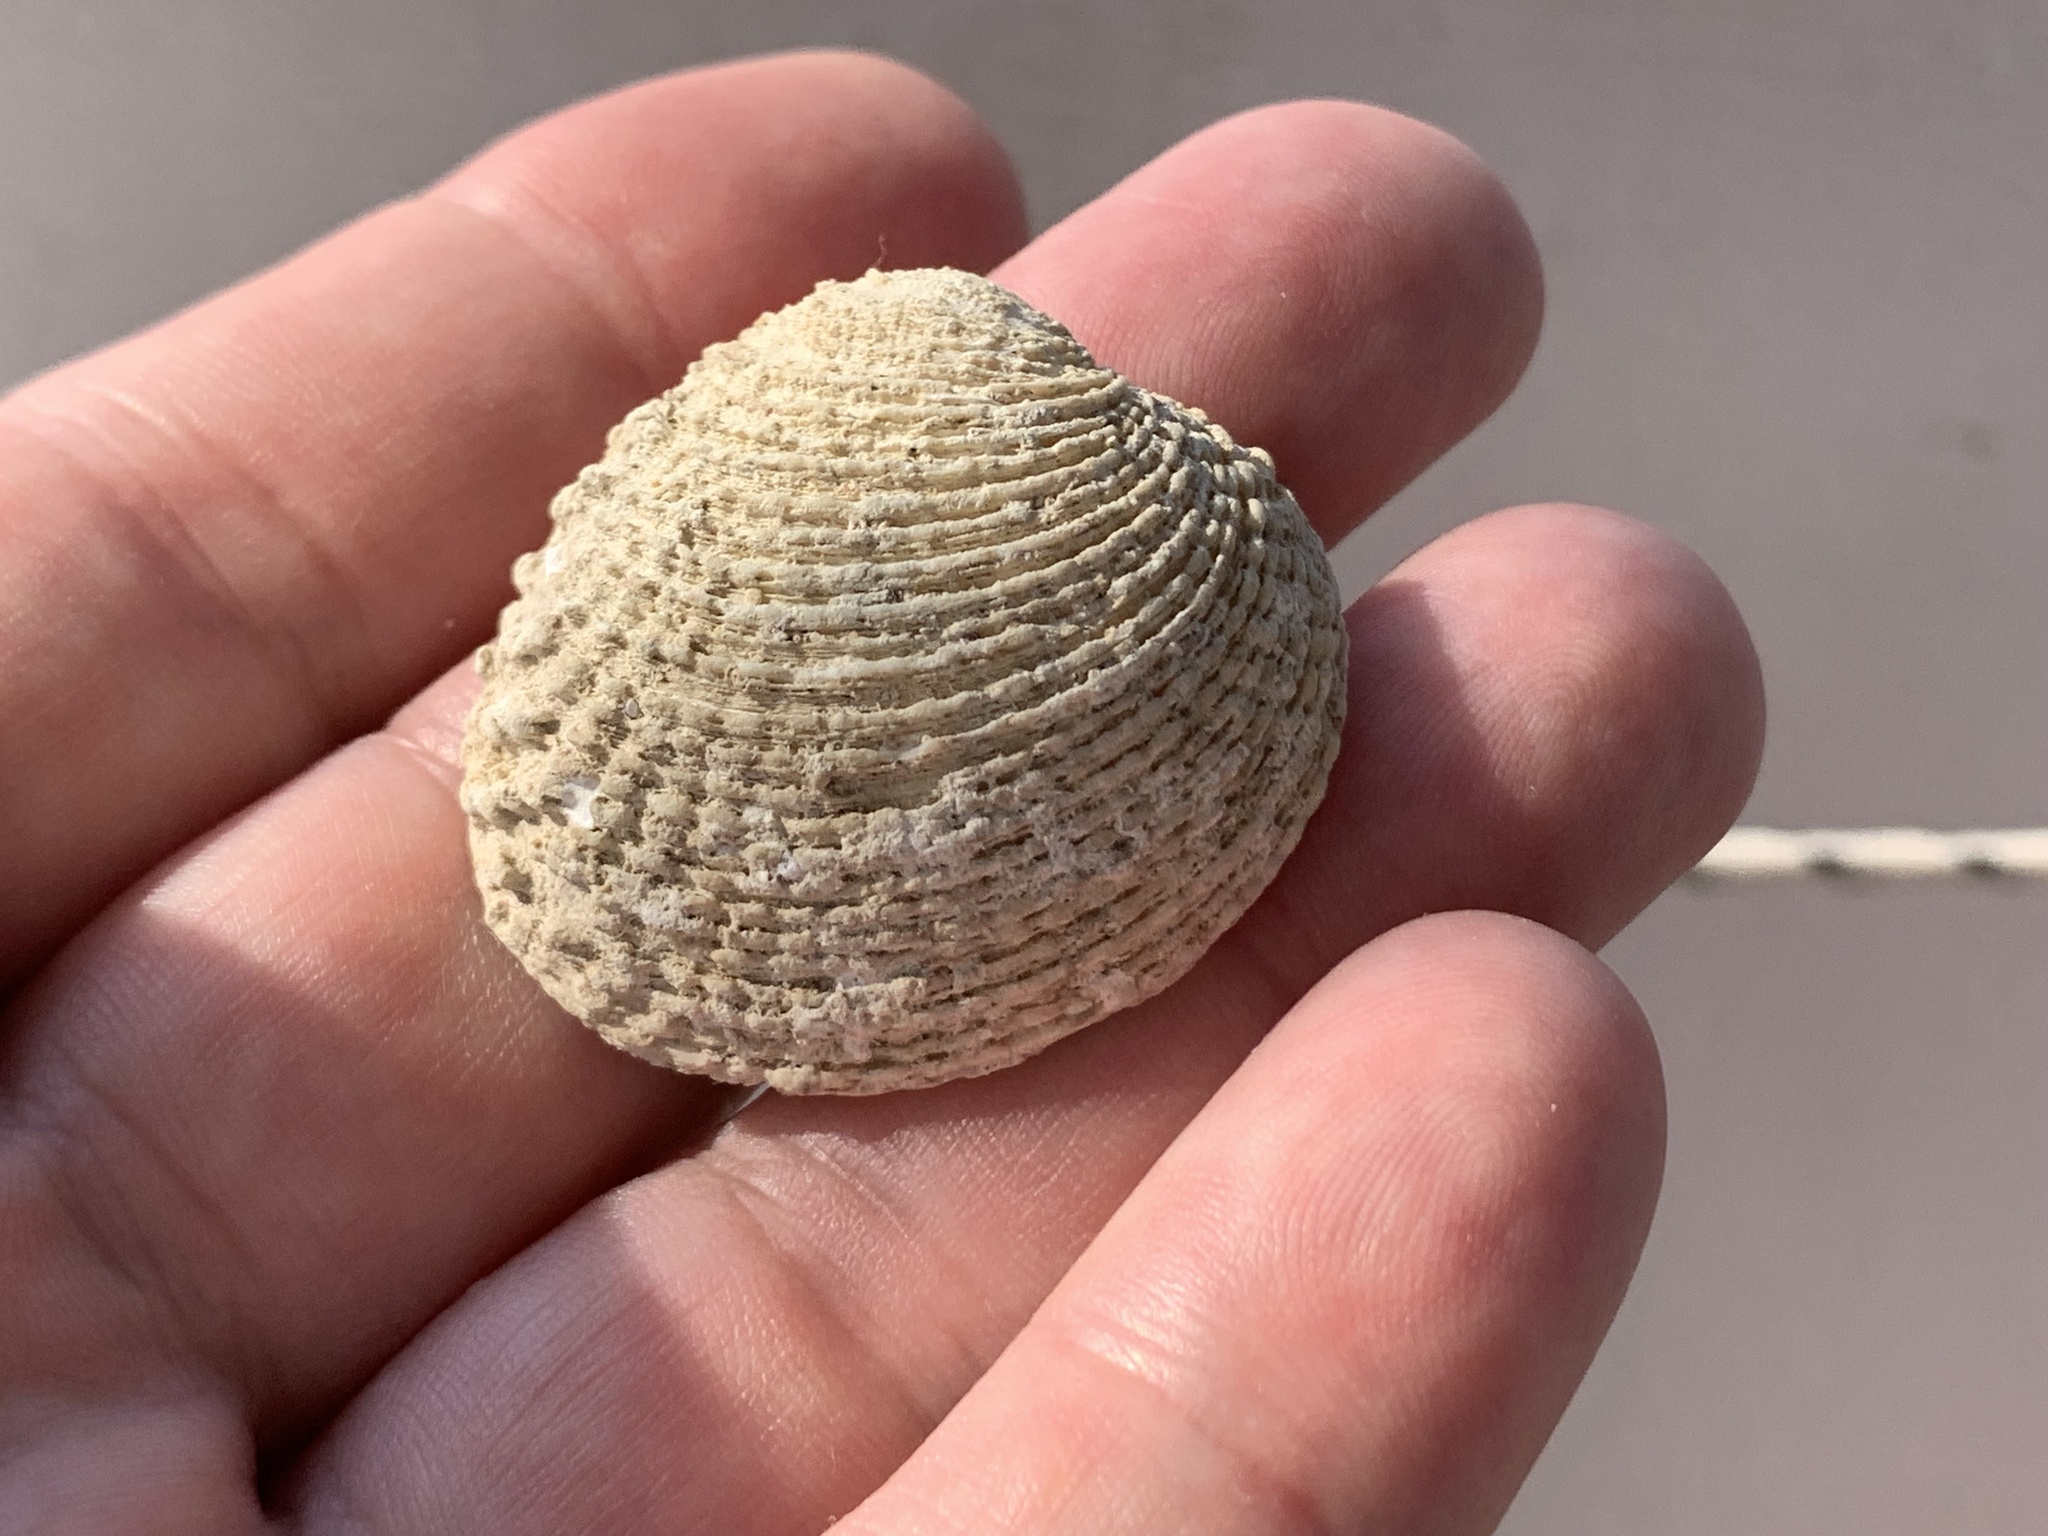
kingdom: Animalia
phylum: Mollusca
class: Bivalvia
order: Venerida
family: Veneridae
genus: Venus
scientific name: Venus verrucosa
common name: Warty venus
